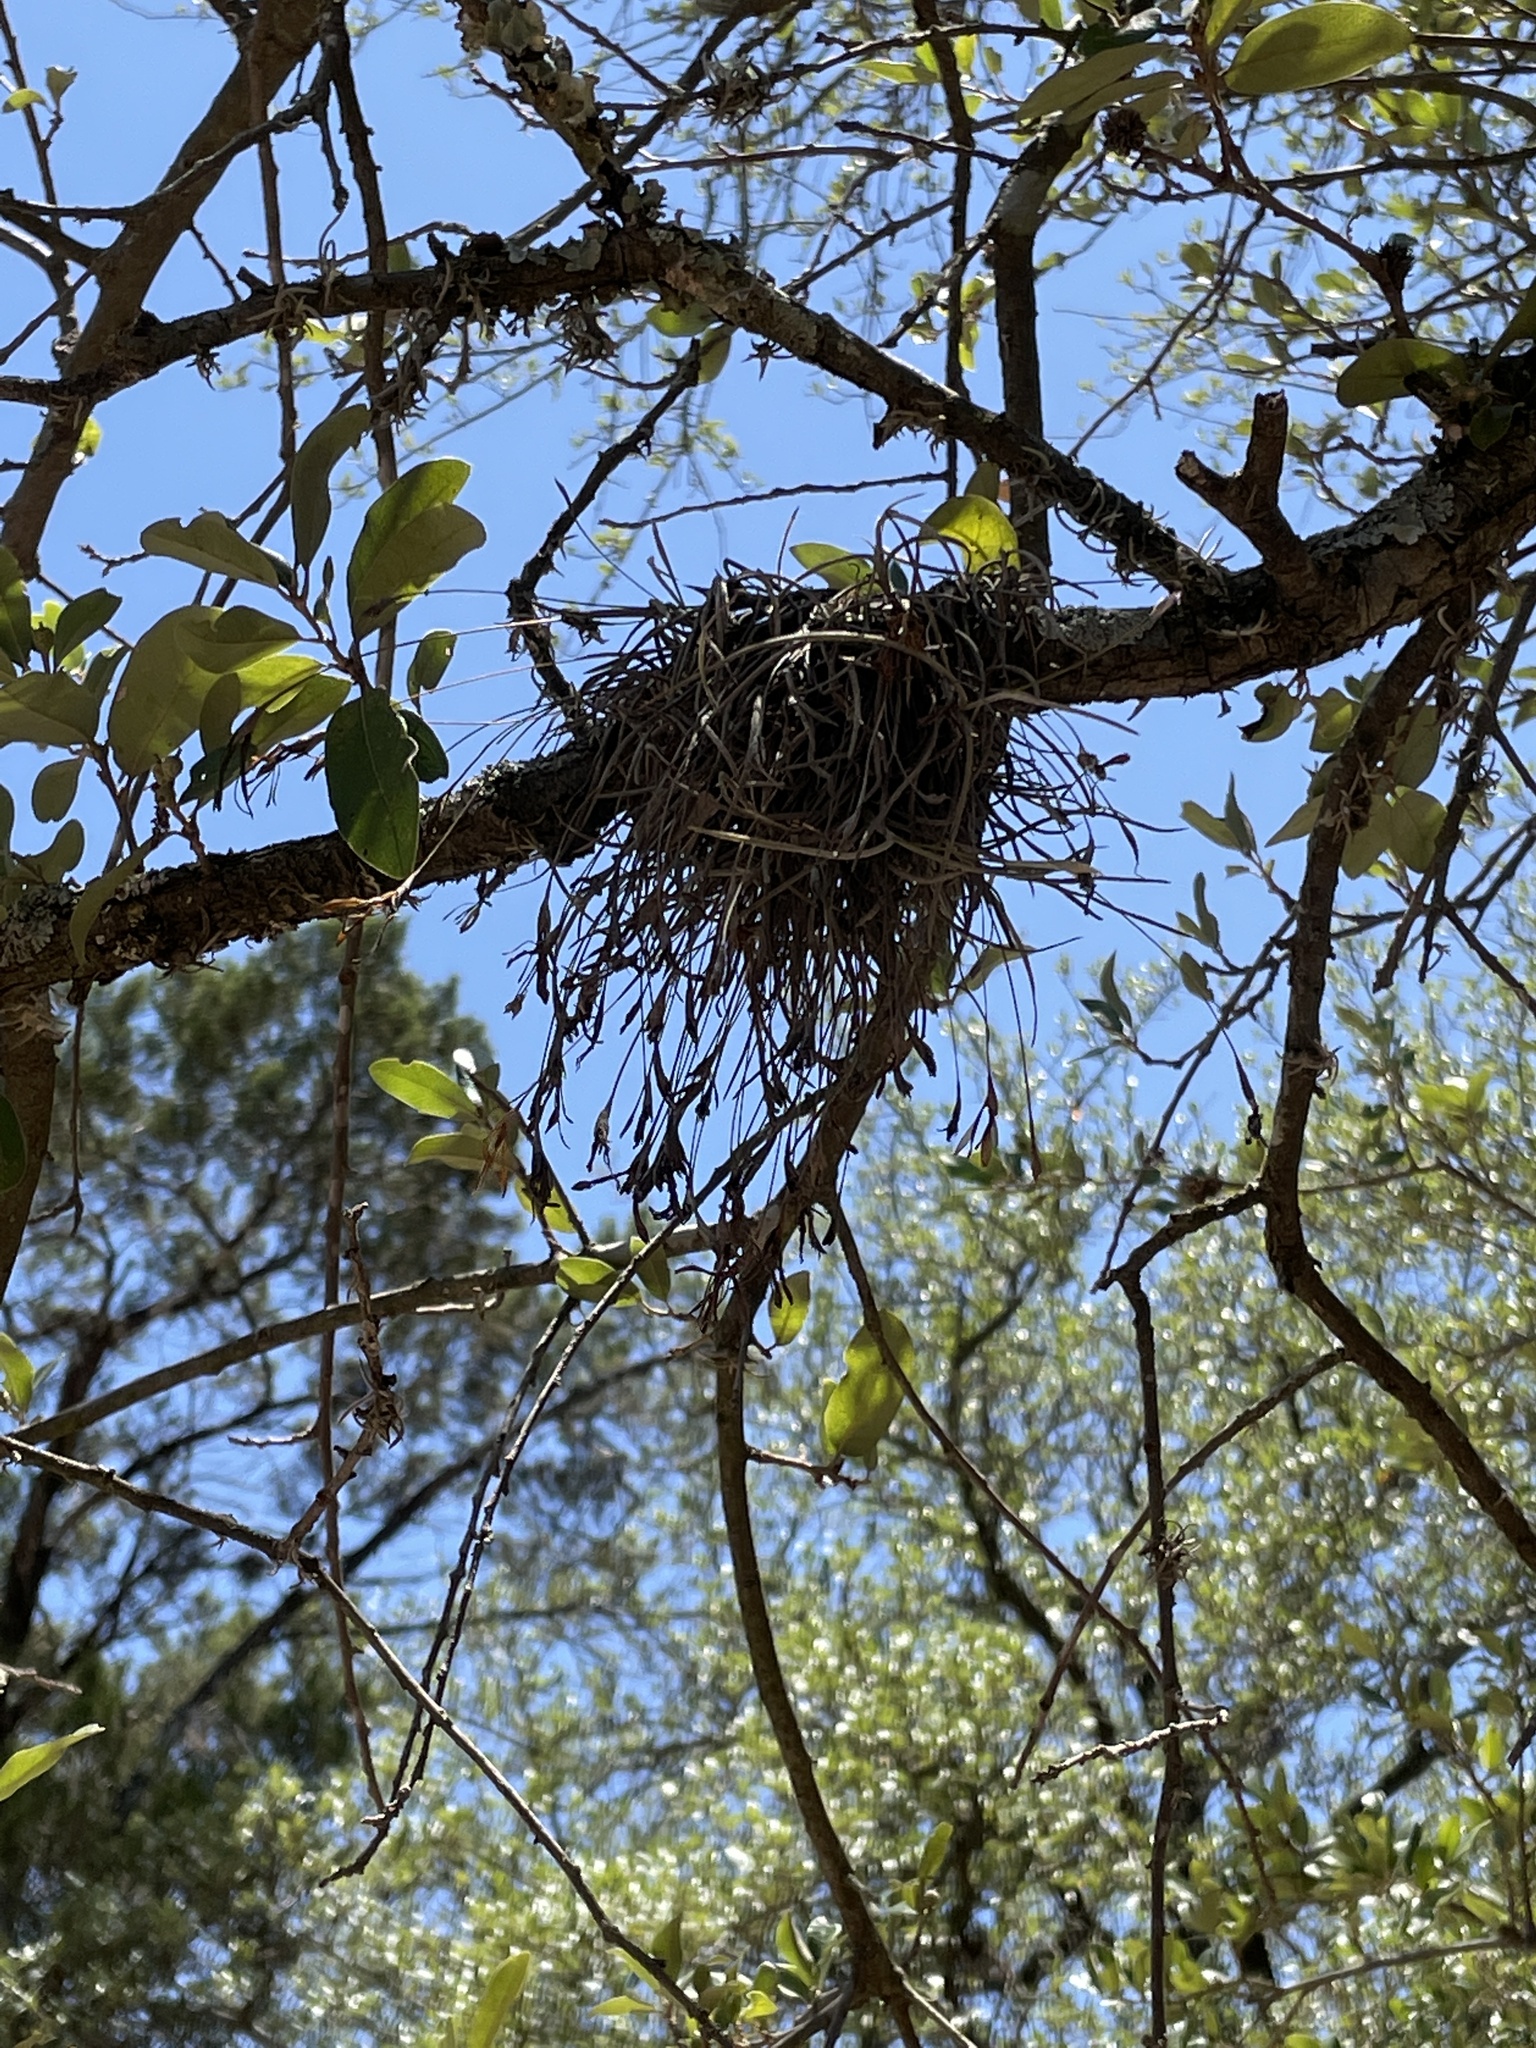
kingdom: Plantae
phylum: Tracheophyta
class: Liliopsida
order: Poales
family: Bromeliaceae
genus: Tillandsia
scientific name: Tillandsia recurvata
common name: Small ballmoss
